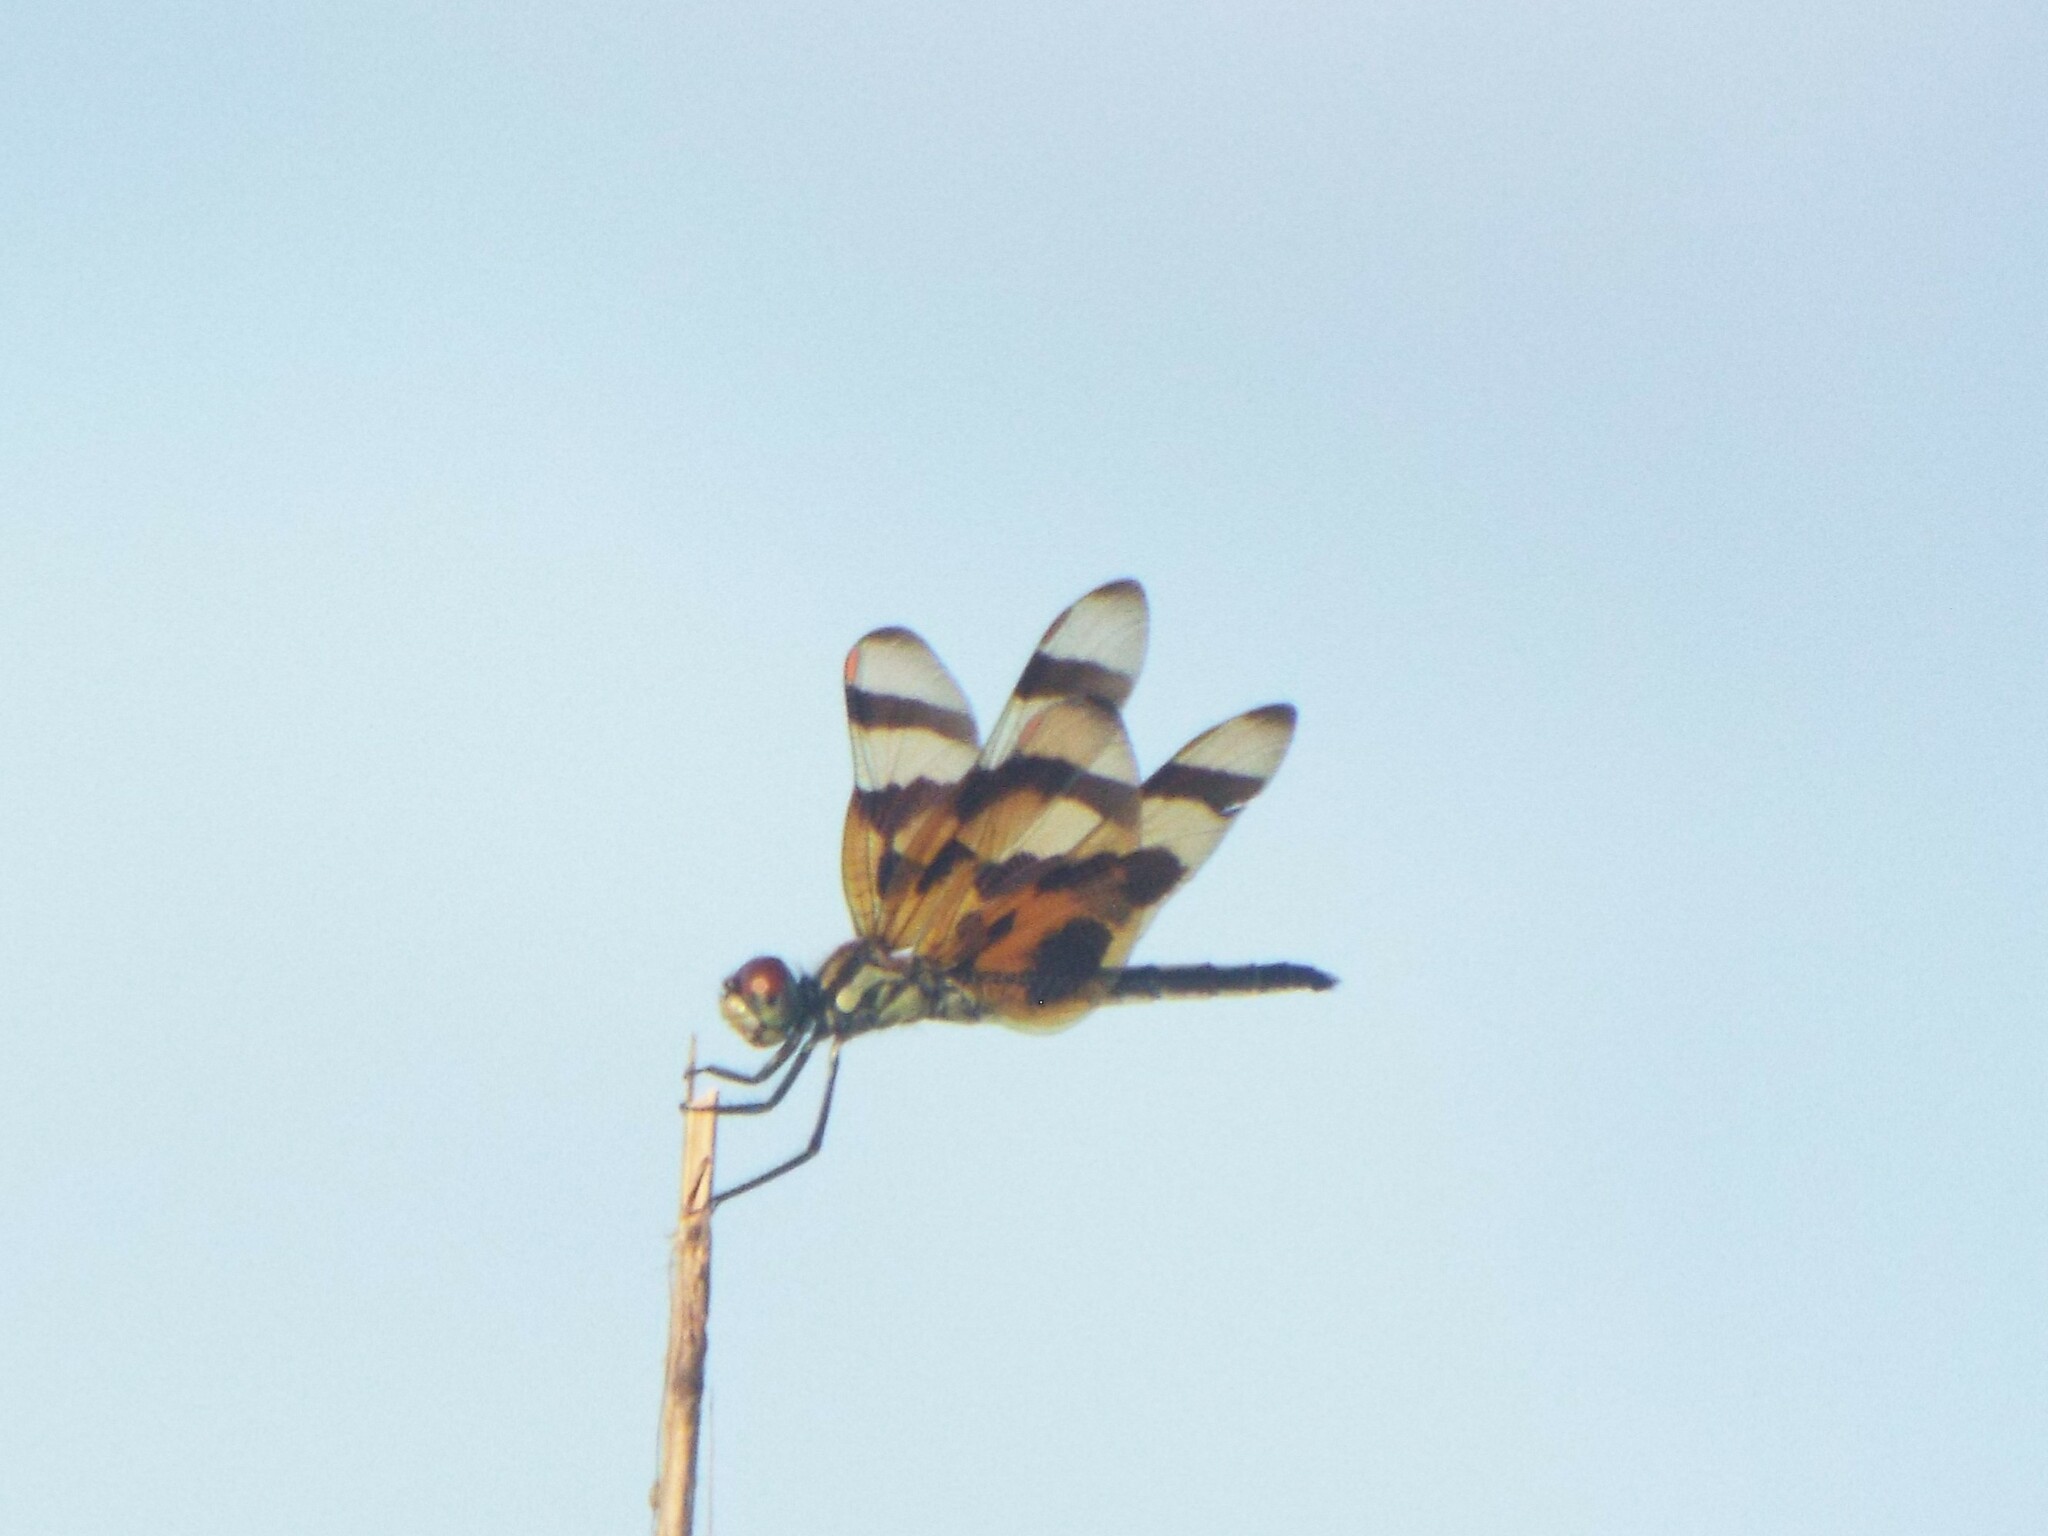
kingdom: Animalia
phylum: Arthropoda
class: Insecta
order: Odonata
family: Libellulidae
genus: Celithemis
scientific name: Celithemis eponina
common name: Halloween pennant
